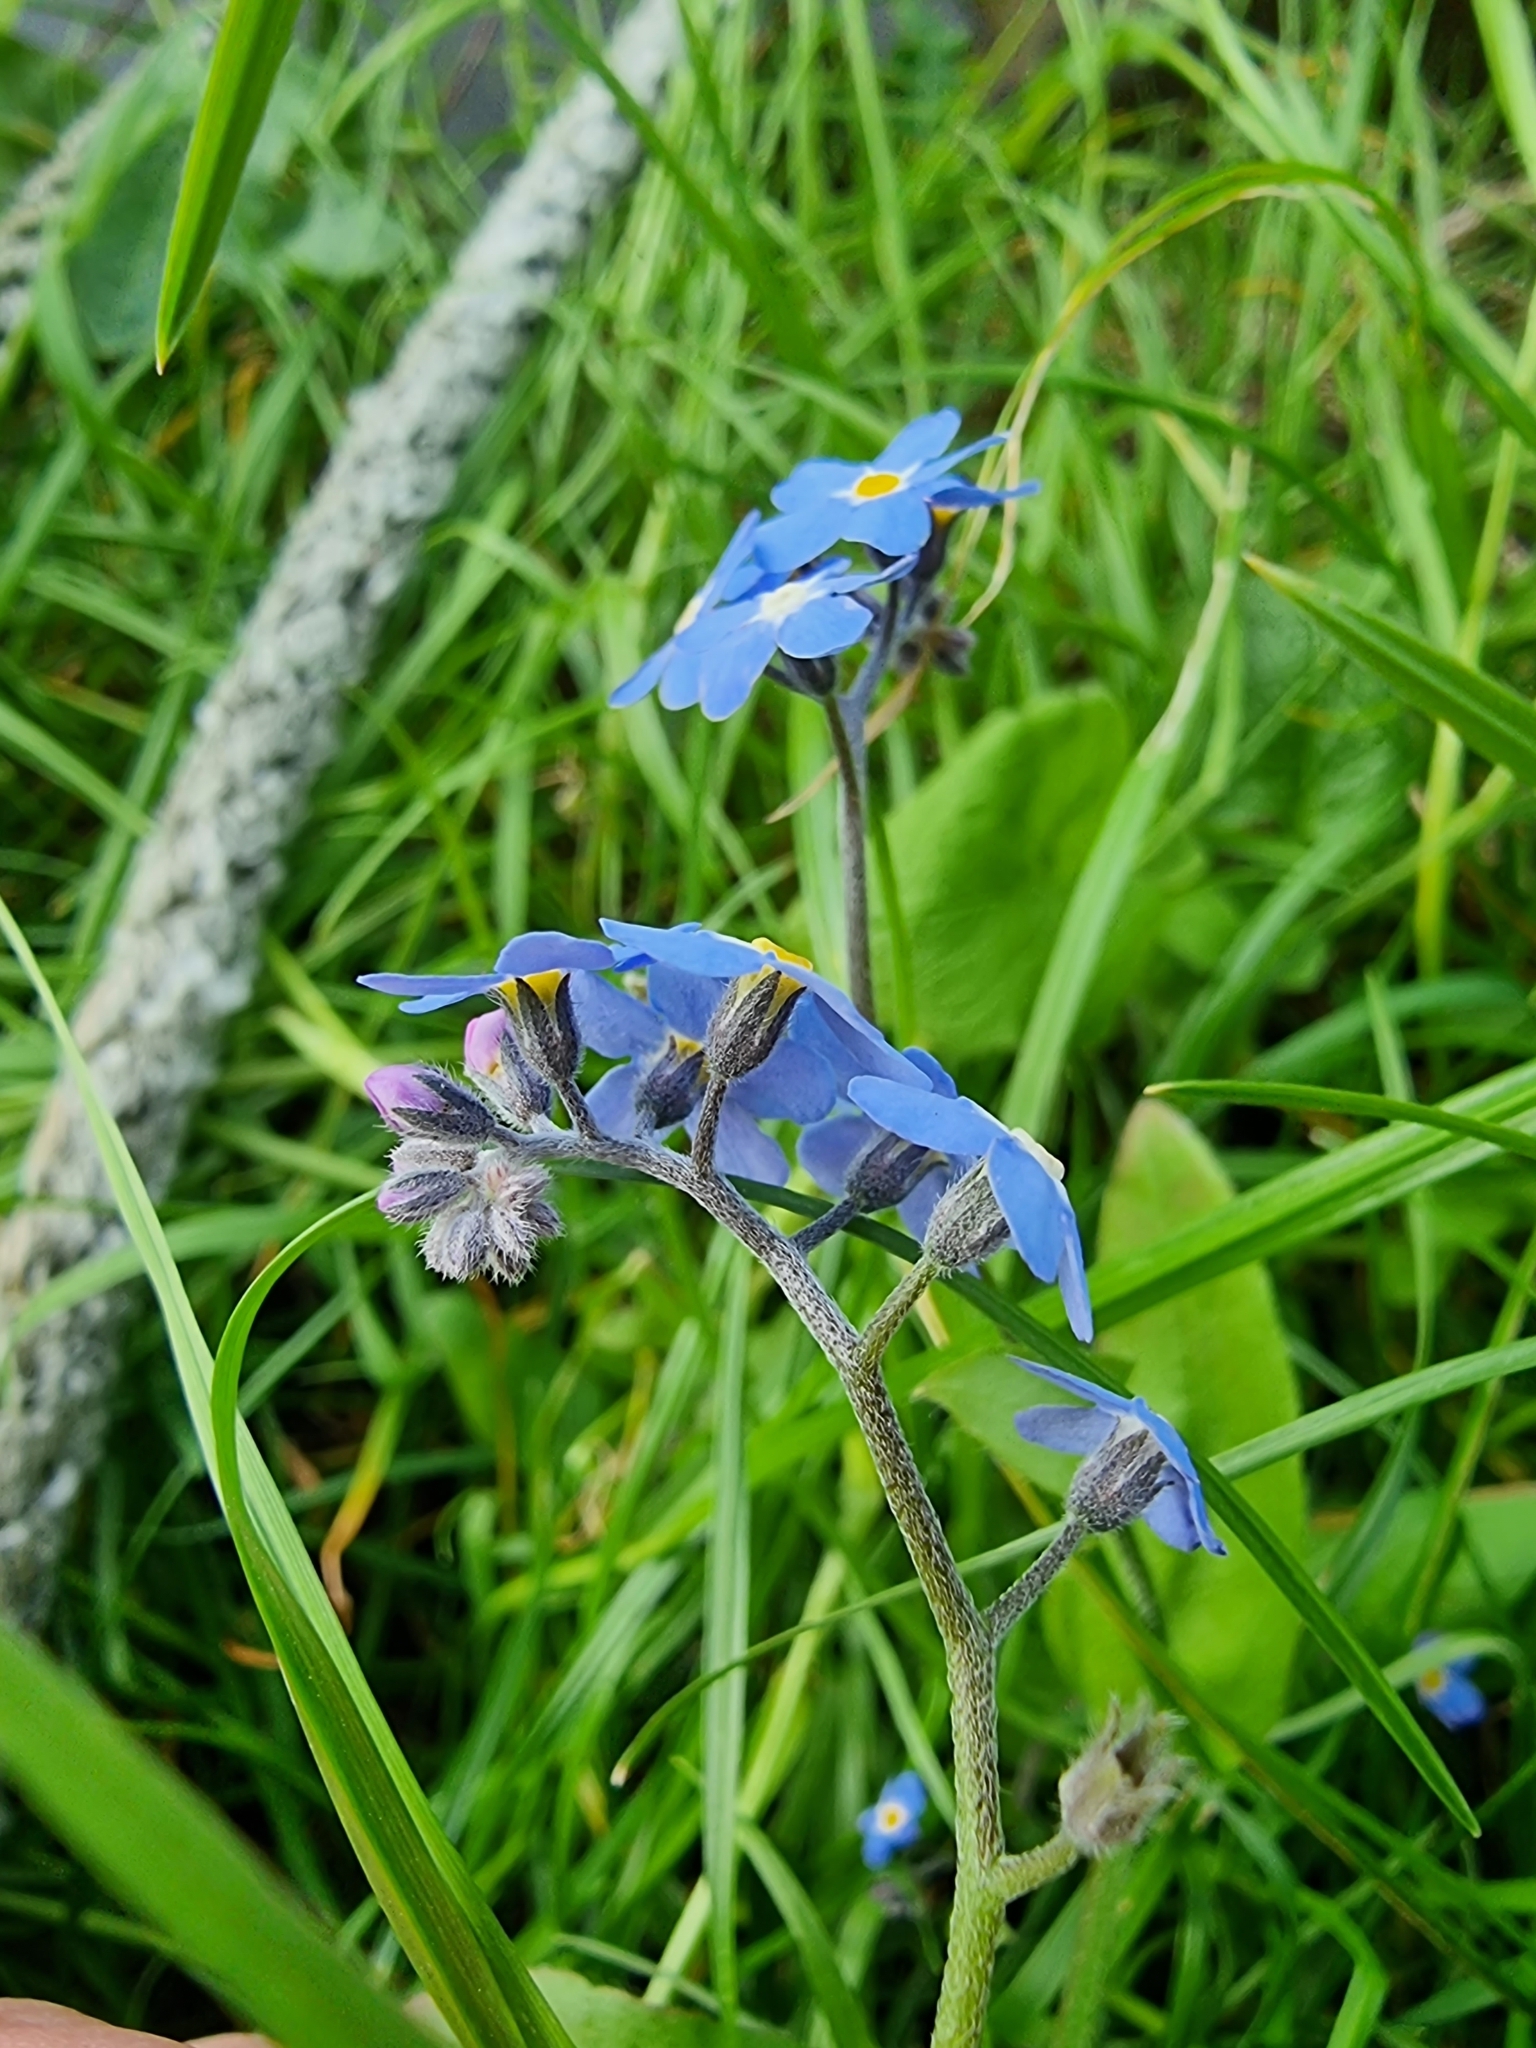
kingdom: Plantae
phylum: Tracheophyta
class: Magnoliopsida
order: Boraginales
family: Boraginaceae
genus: Myosotis
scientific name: Myosotis sylvatica
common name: Wood forget-me-not
